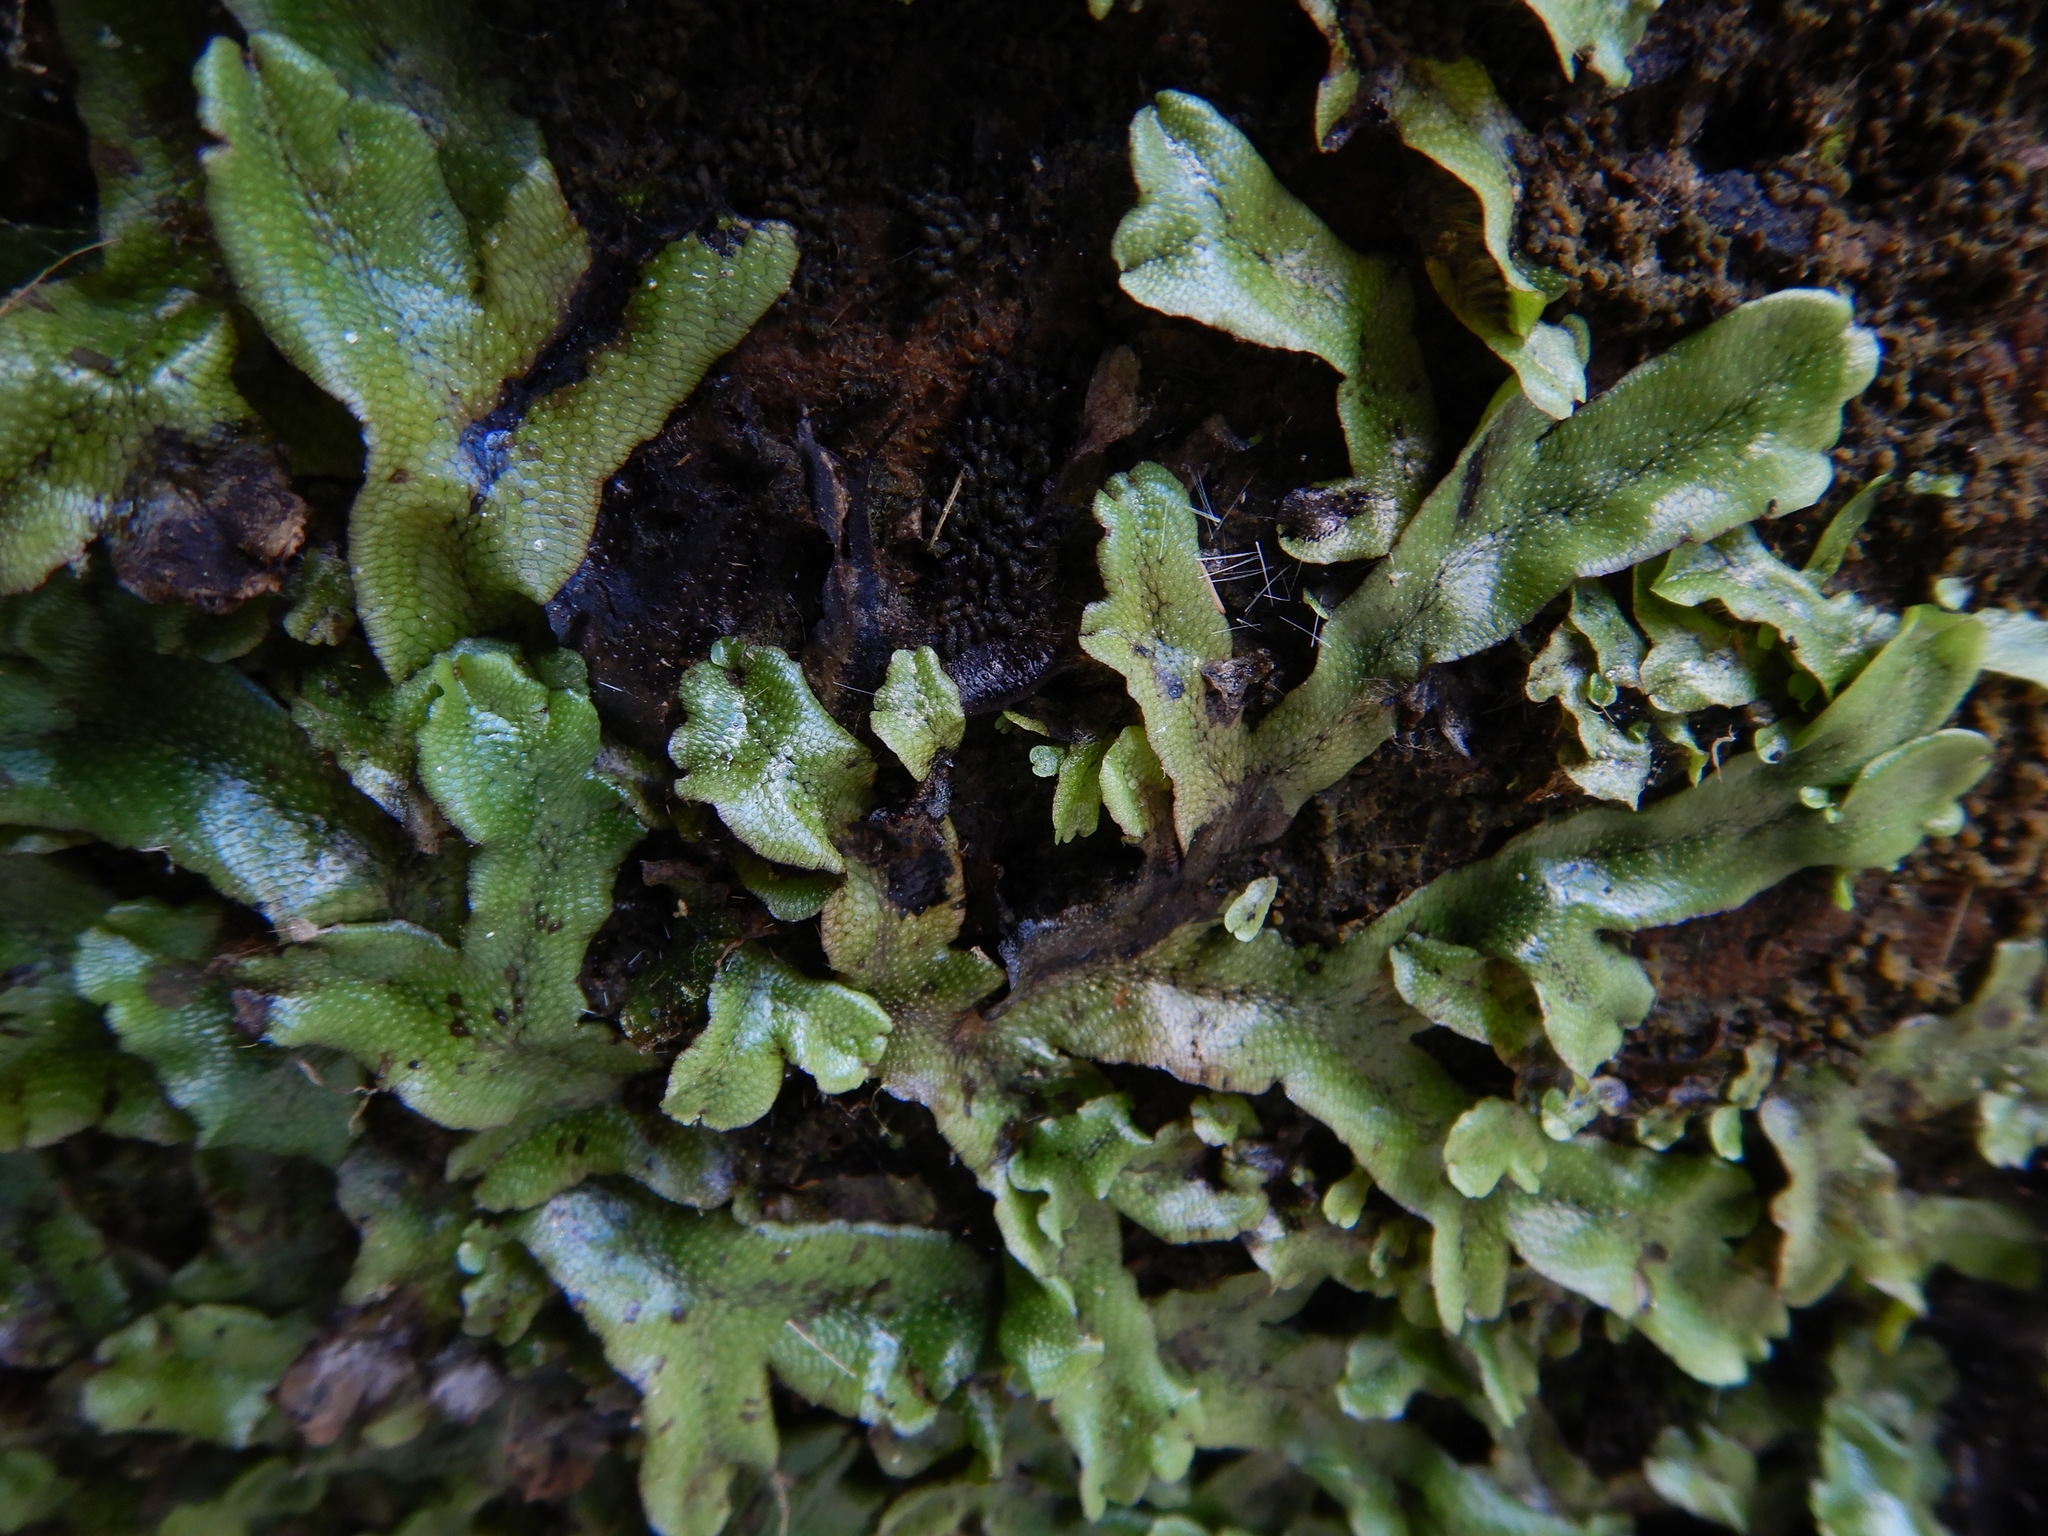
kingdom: Plantae
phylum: Marchantiophyta
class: Marchantiopsida
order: Marchantiales
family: Conocephalaceae
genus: Conocephalum
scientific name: Conocephalum conicum
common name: Great scented liverwort
